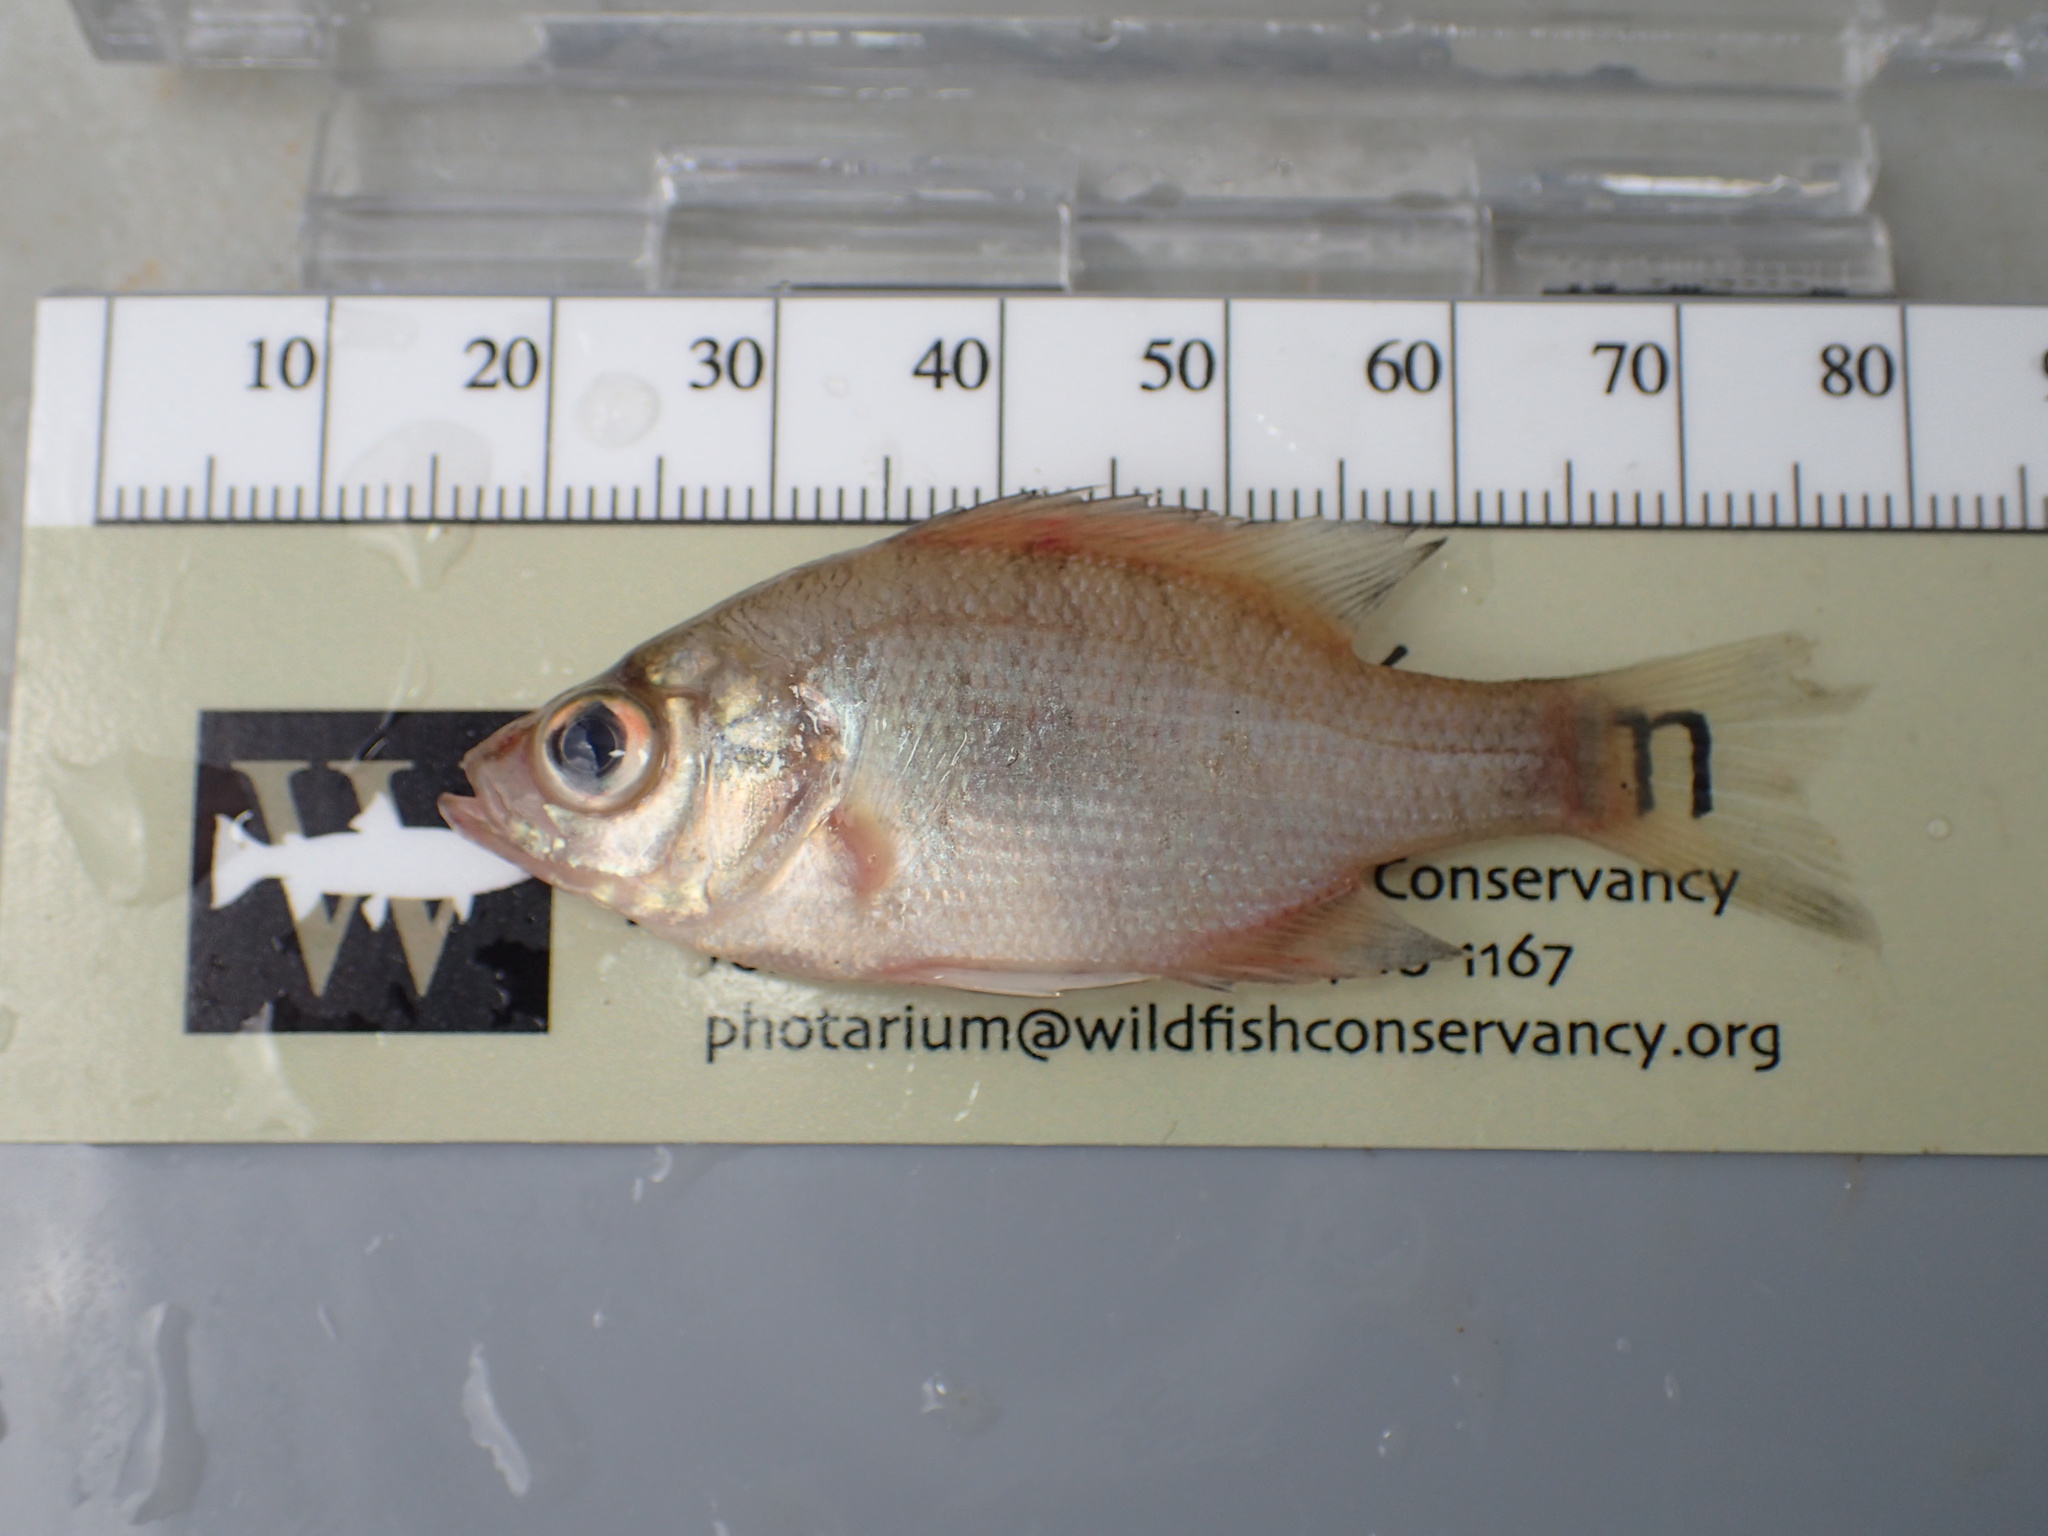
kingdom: Animalia
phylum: Chordata
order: Perciformes
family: Centrarchidae
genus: Lepomis
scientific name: Lepomis macrochirus
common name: Bluegill
